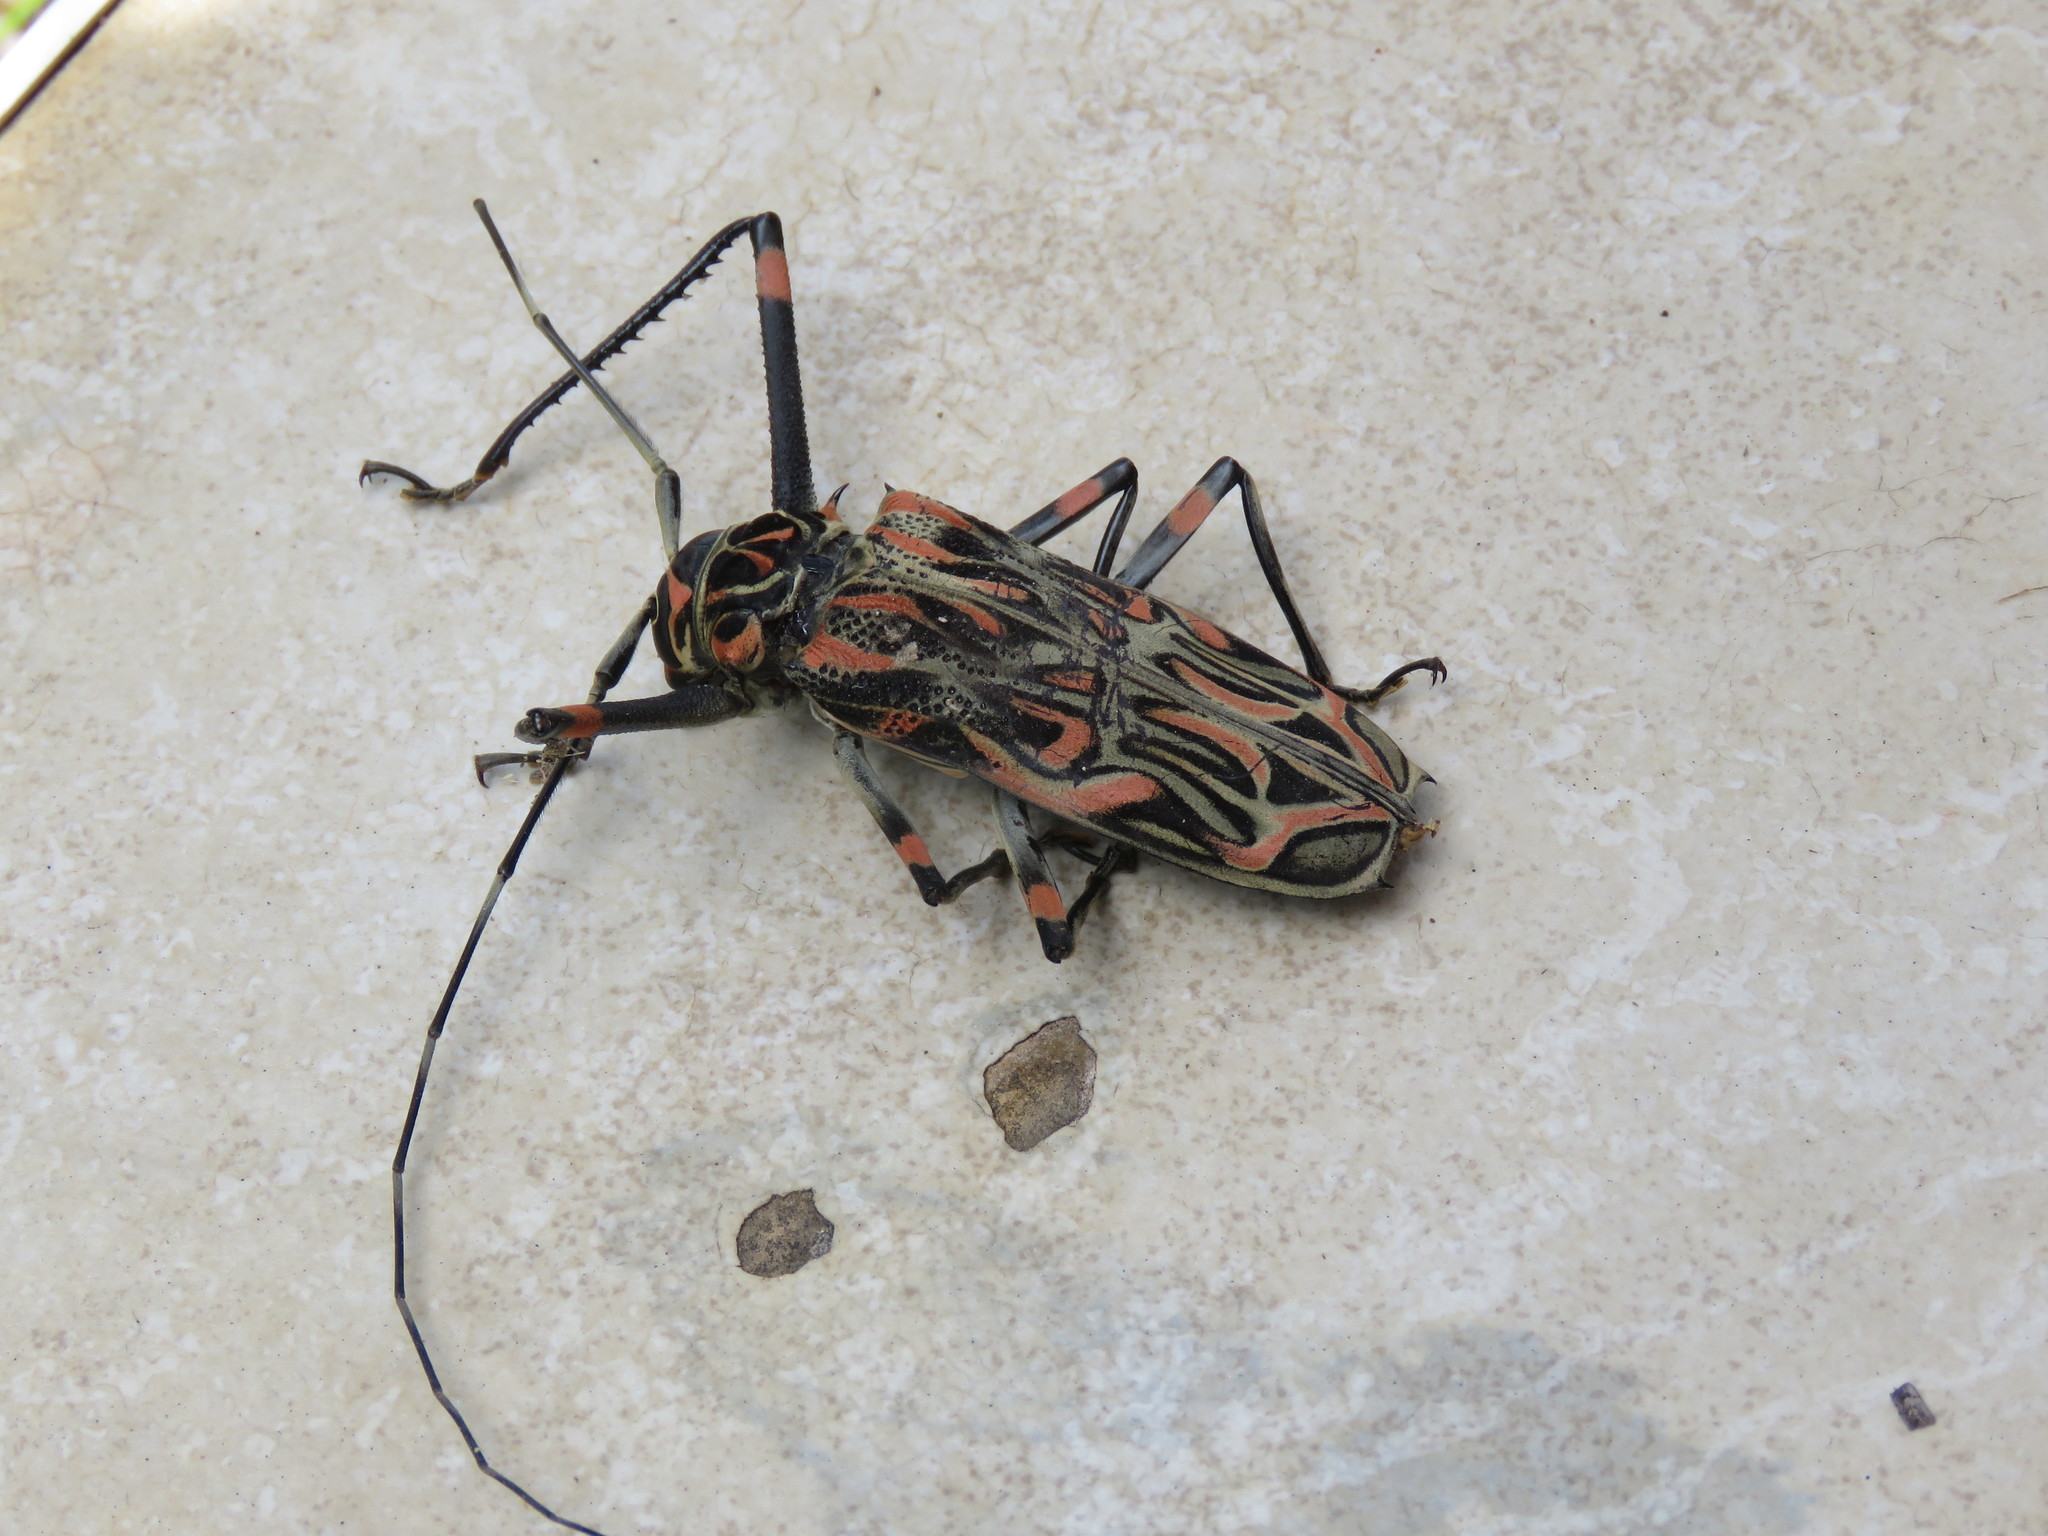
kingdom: Animalia
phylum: Arthropoda
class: Insecta
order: Coleoptera
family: Cerambycidae
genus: Acrocinus
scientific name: Acrocinus longimanus
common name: Arlequin
